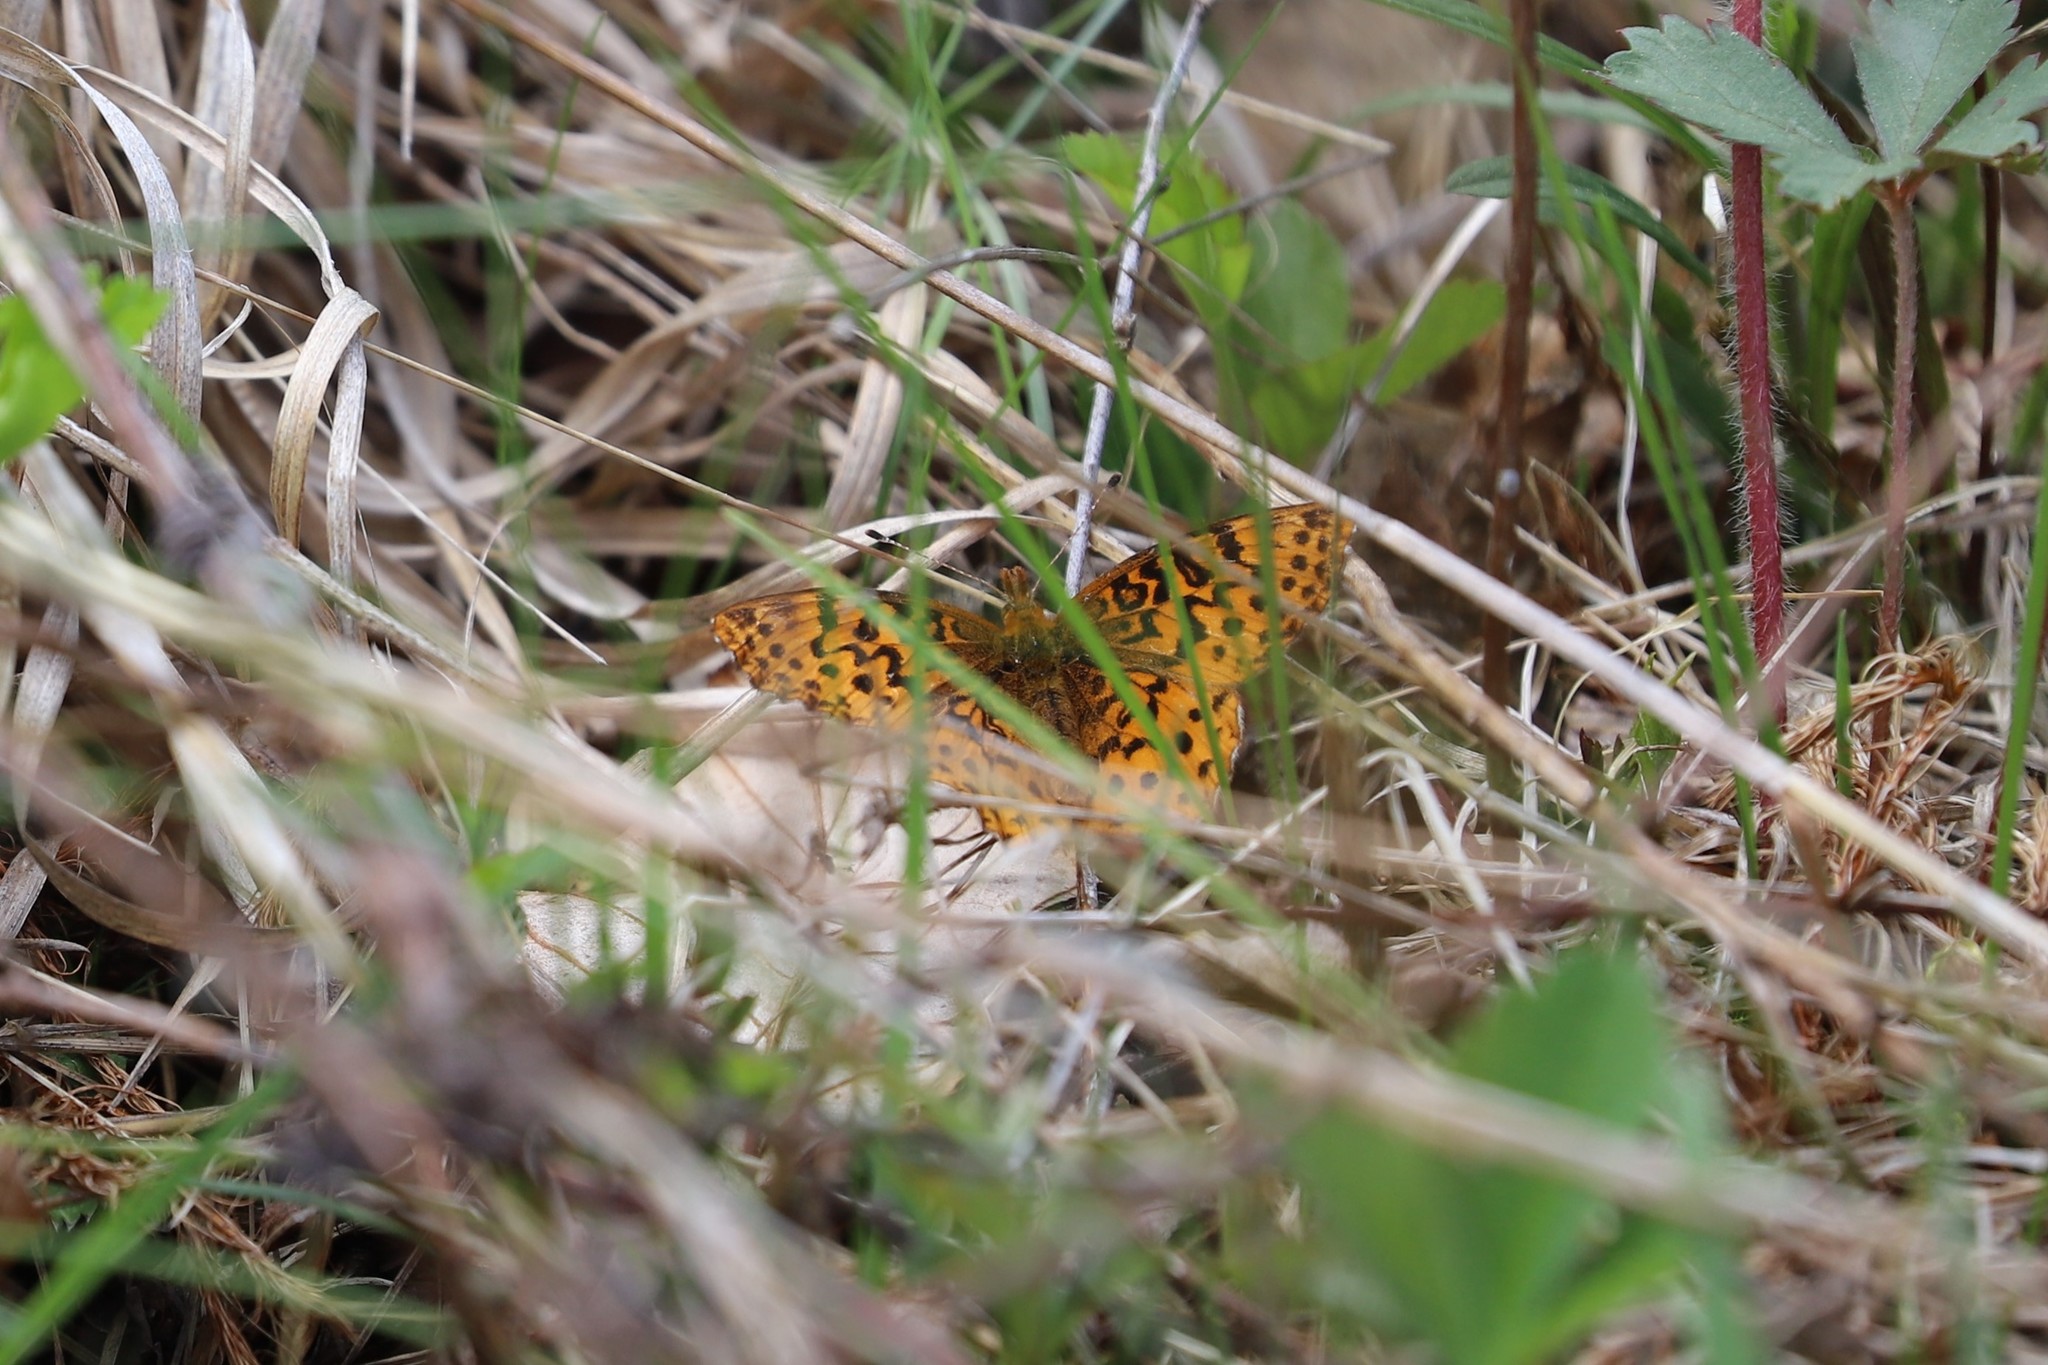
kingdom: Animalia
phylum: Arthropoda
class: Insecta
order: Lepidoptera
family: Nymphalidae
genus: Clossiana
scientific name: Clossiana toddi
